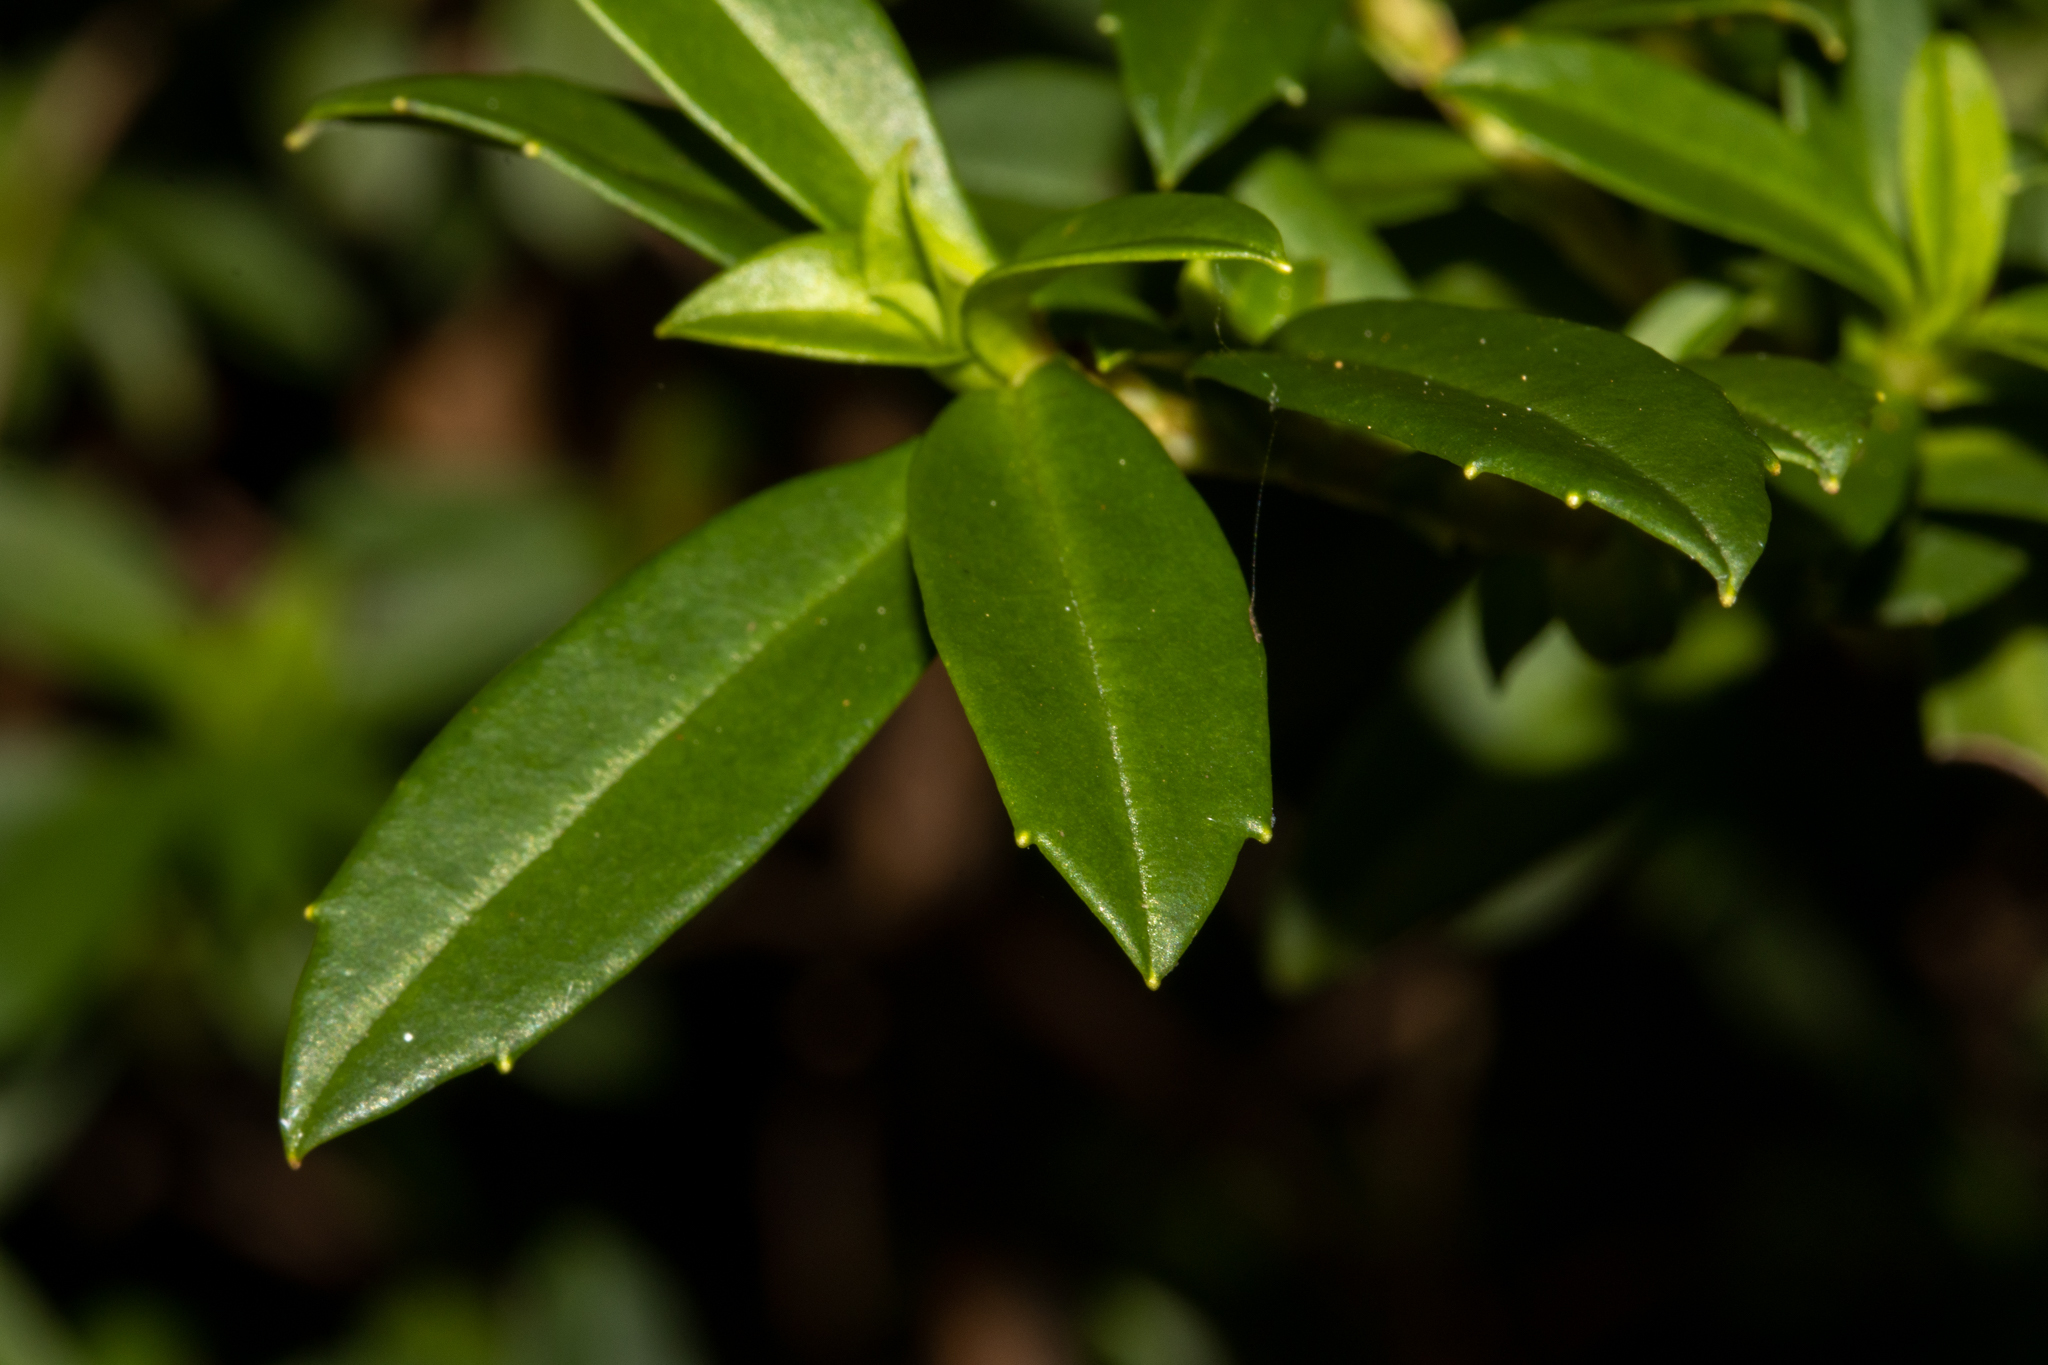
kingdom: Plantae
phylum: Tracheophyta
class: Magnoliopsida
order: Dilleniales
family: Dilleniaceae
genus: Hibbertia
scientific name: Hibbertia cuneiformis
